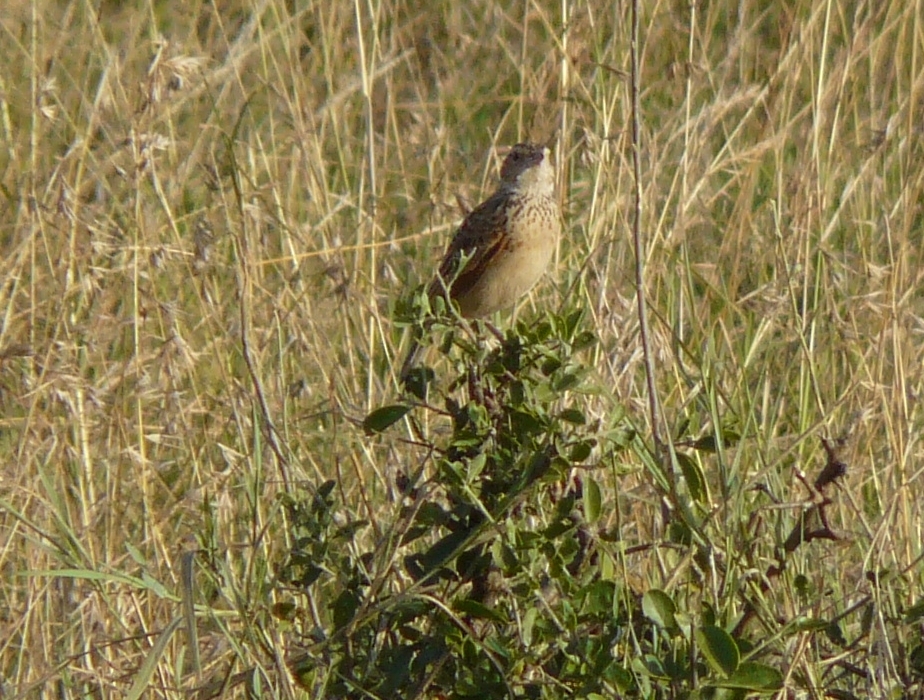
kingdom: Animalia
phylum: Chordata
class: Aves
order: Passeriformes
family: Alaudidae
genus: Mirafra
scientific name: Mirafra africana
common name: Rufous-naped lark
